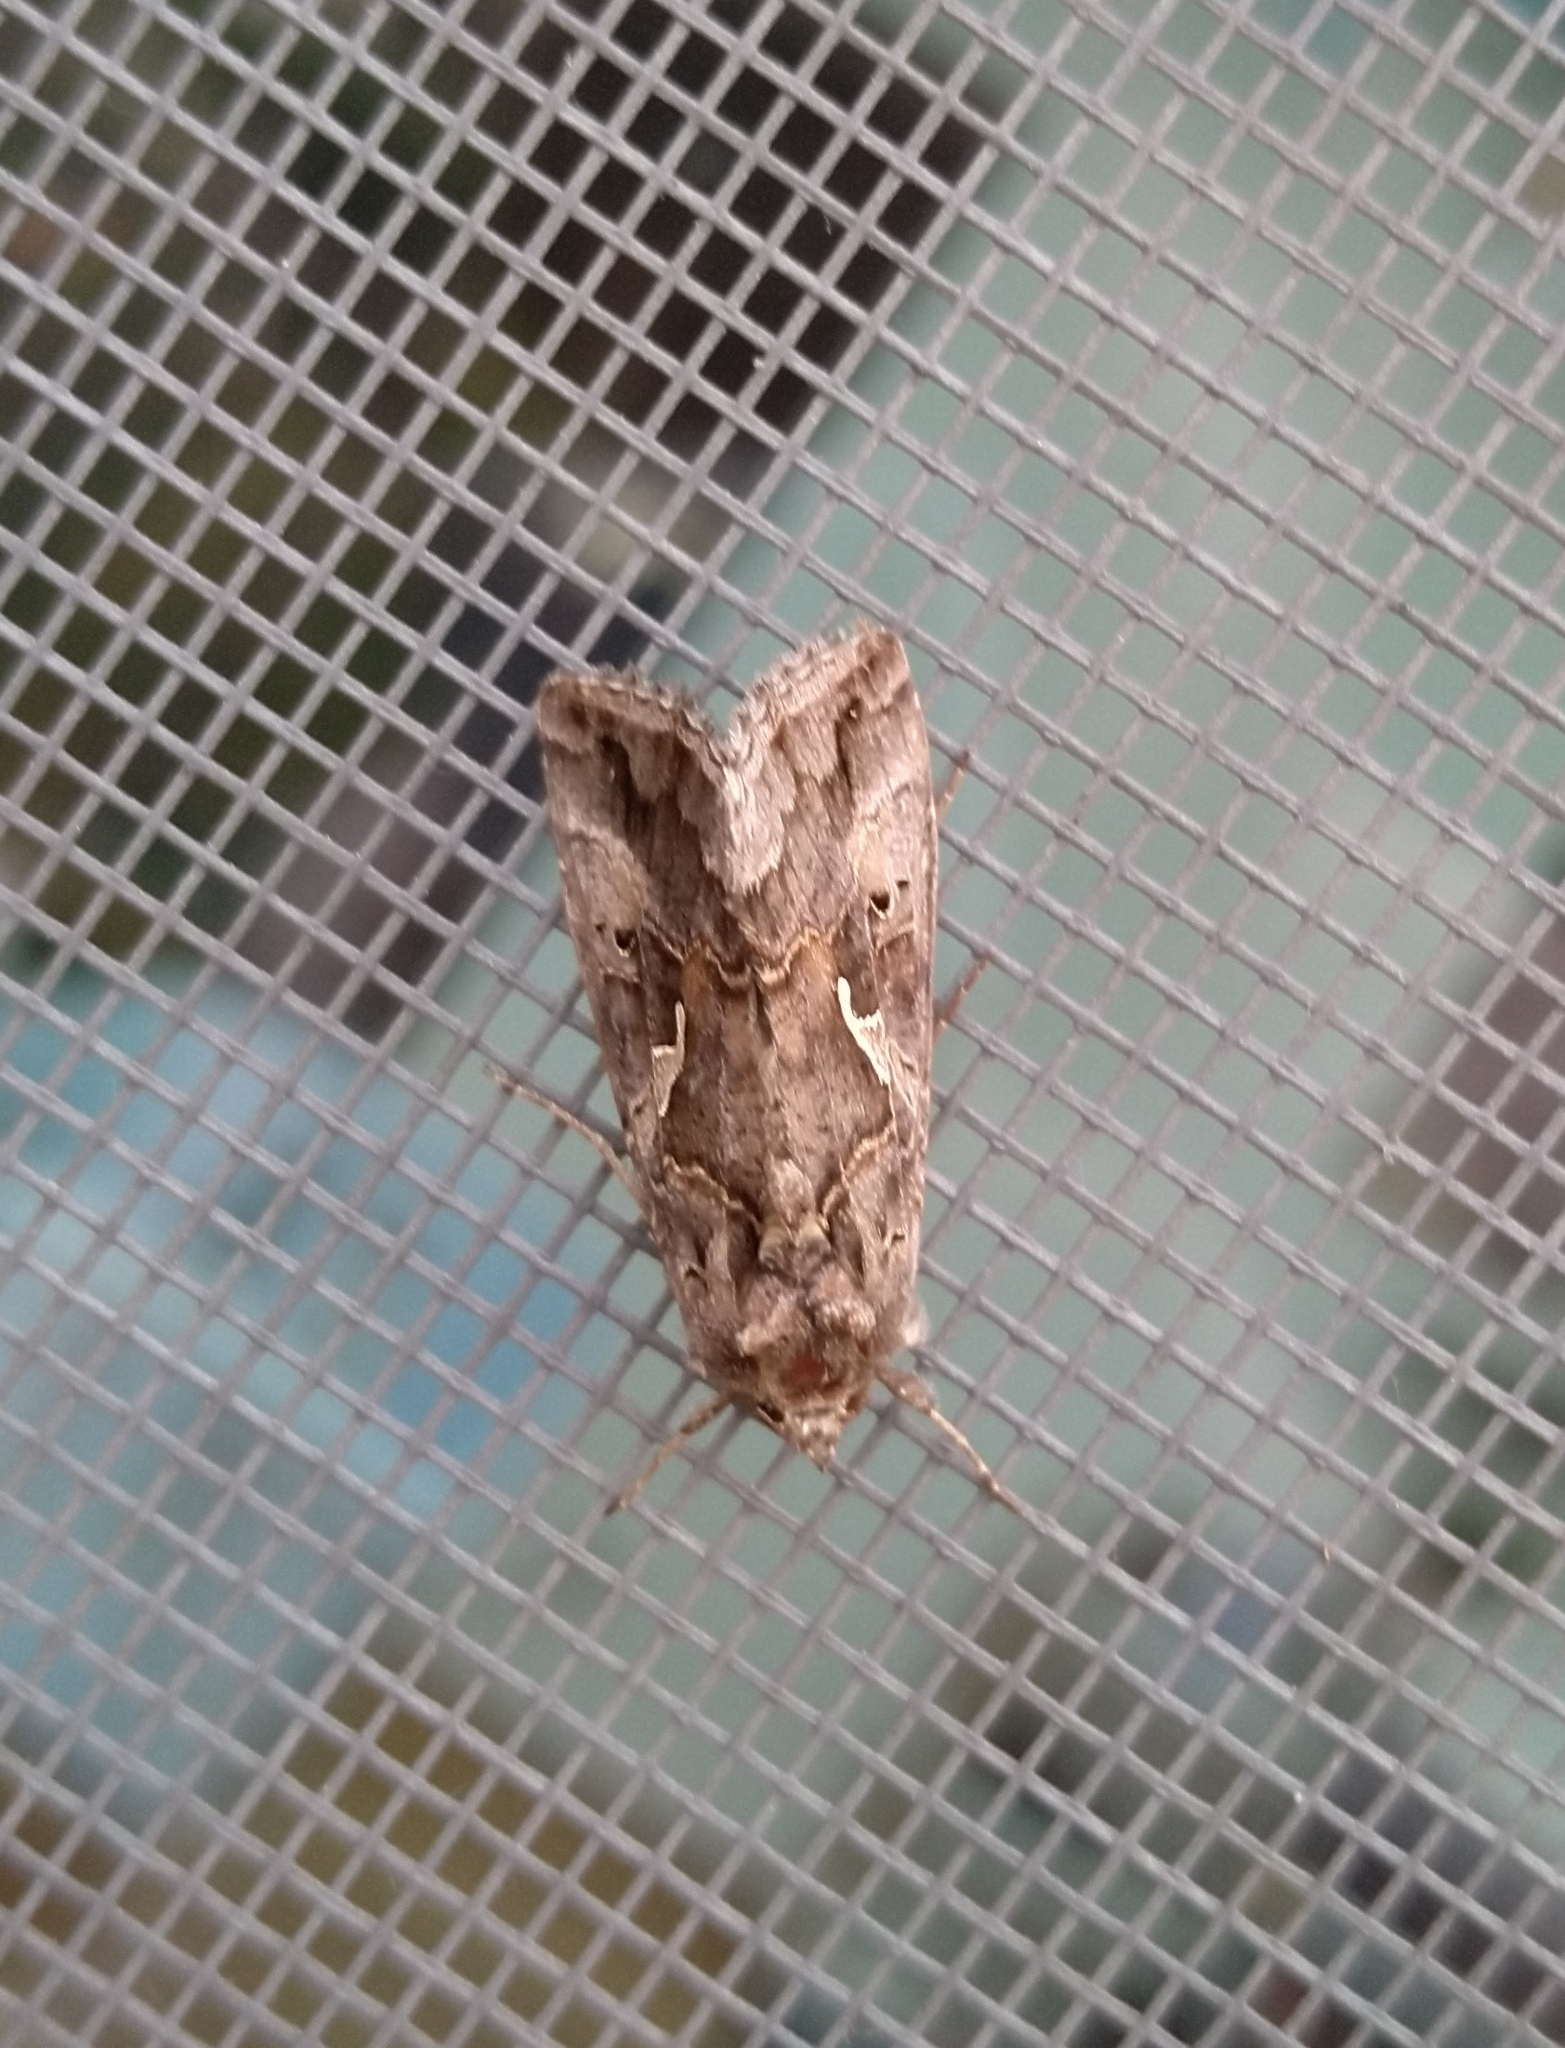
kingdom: Animalia
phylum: Arthropoda
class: Insecta
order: Lepidoptera
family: Noctuidae
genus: Autographa
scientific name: Autographa gamma
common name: Silver y
